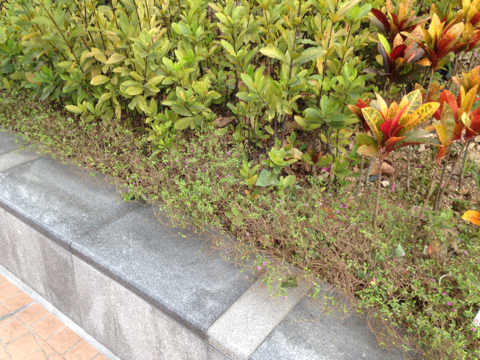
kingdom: Plantae
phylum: Tracheophyta
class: Magnoliopsida
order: Myrtales
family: Lythraceae
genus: Cuphea
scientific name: Cuphea hyssopifolia
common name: False heather
